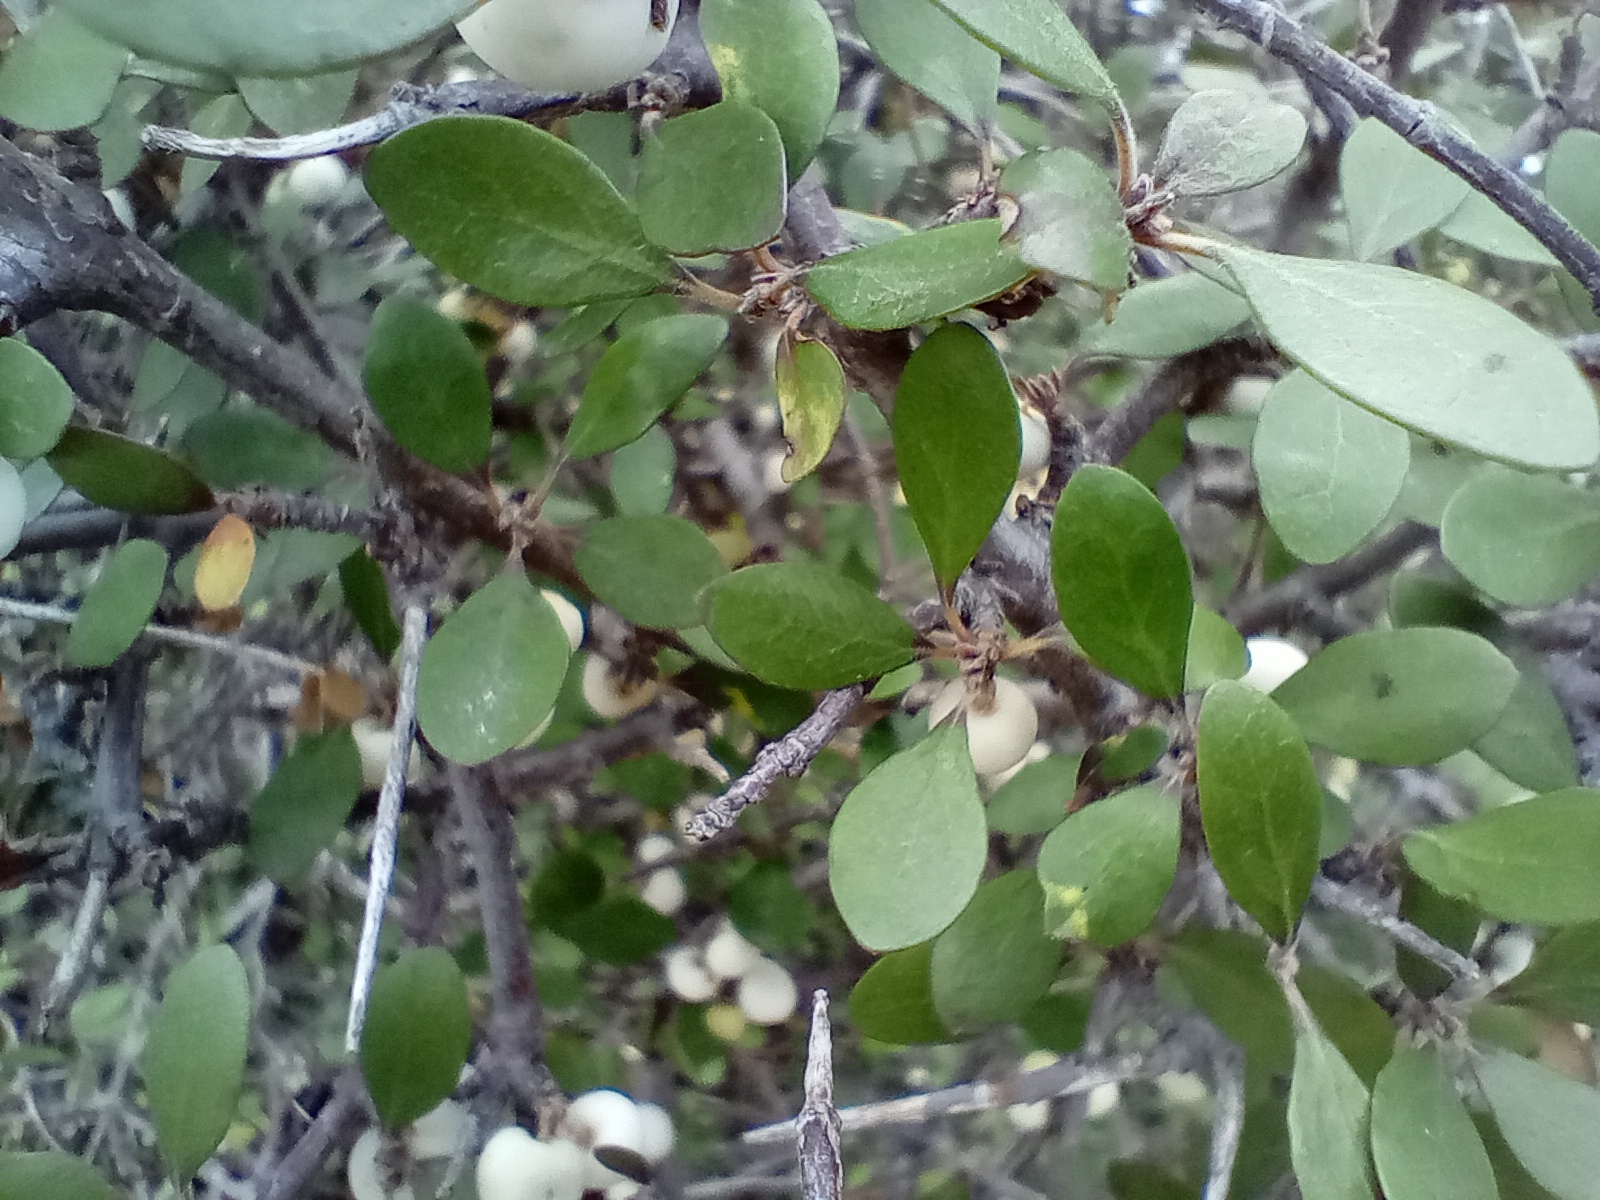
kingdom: Plantae
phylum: Tracheophyta
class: Magnoliopsida
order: Oxalidales
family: Elaeocarpaceae
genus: Aristotelia
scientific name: Aristotelia fruticosa
